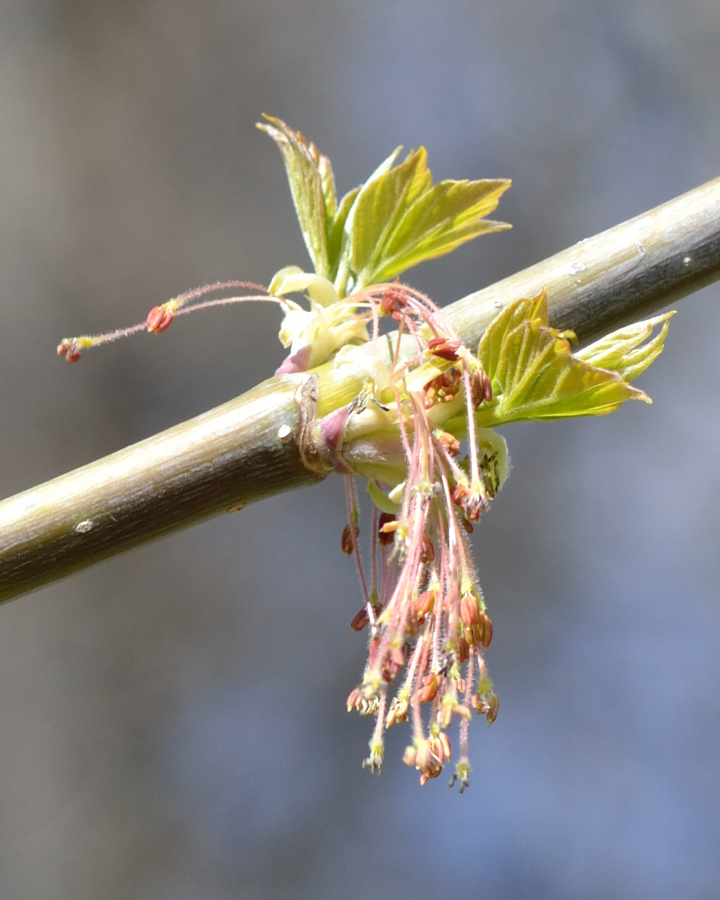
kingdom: Plantae
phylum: Tracheophyta
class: Magnoliopsida
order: Sapindales
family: Sapindaceae
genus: Acer
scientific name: Acer negundo
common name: Ashleaf maple
